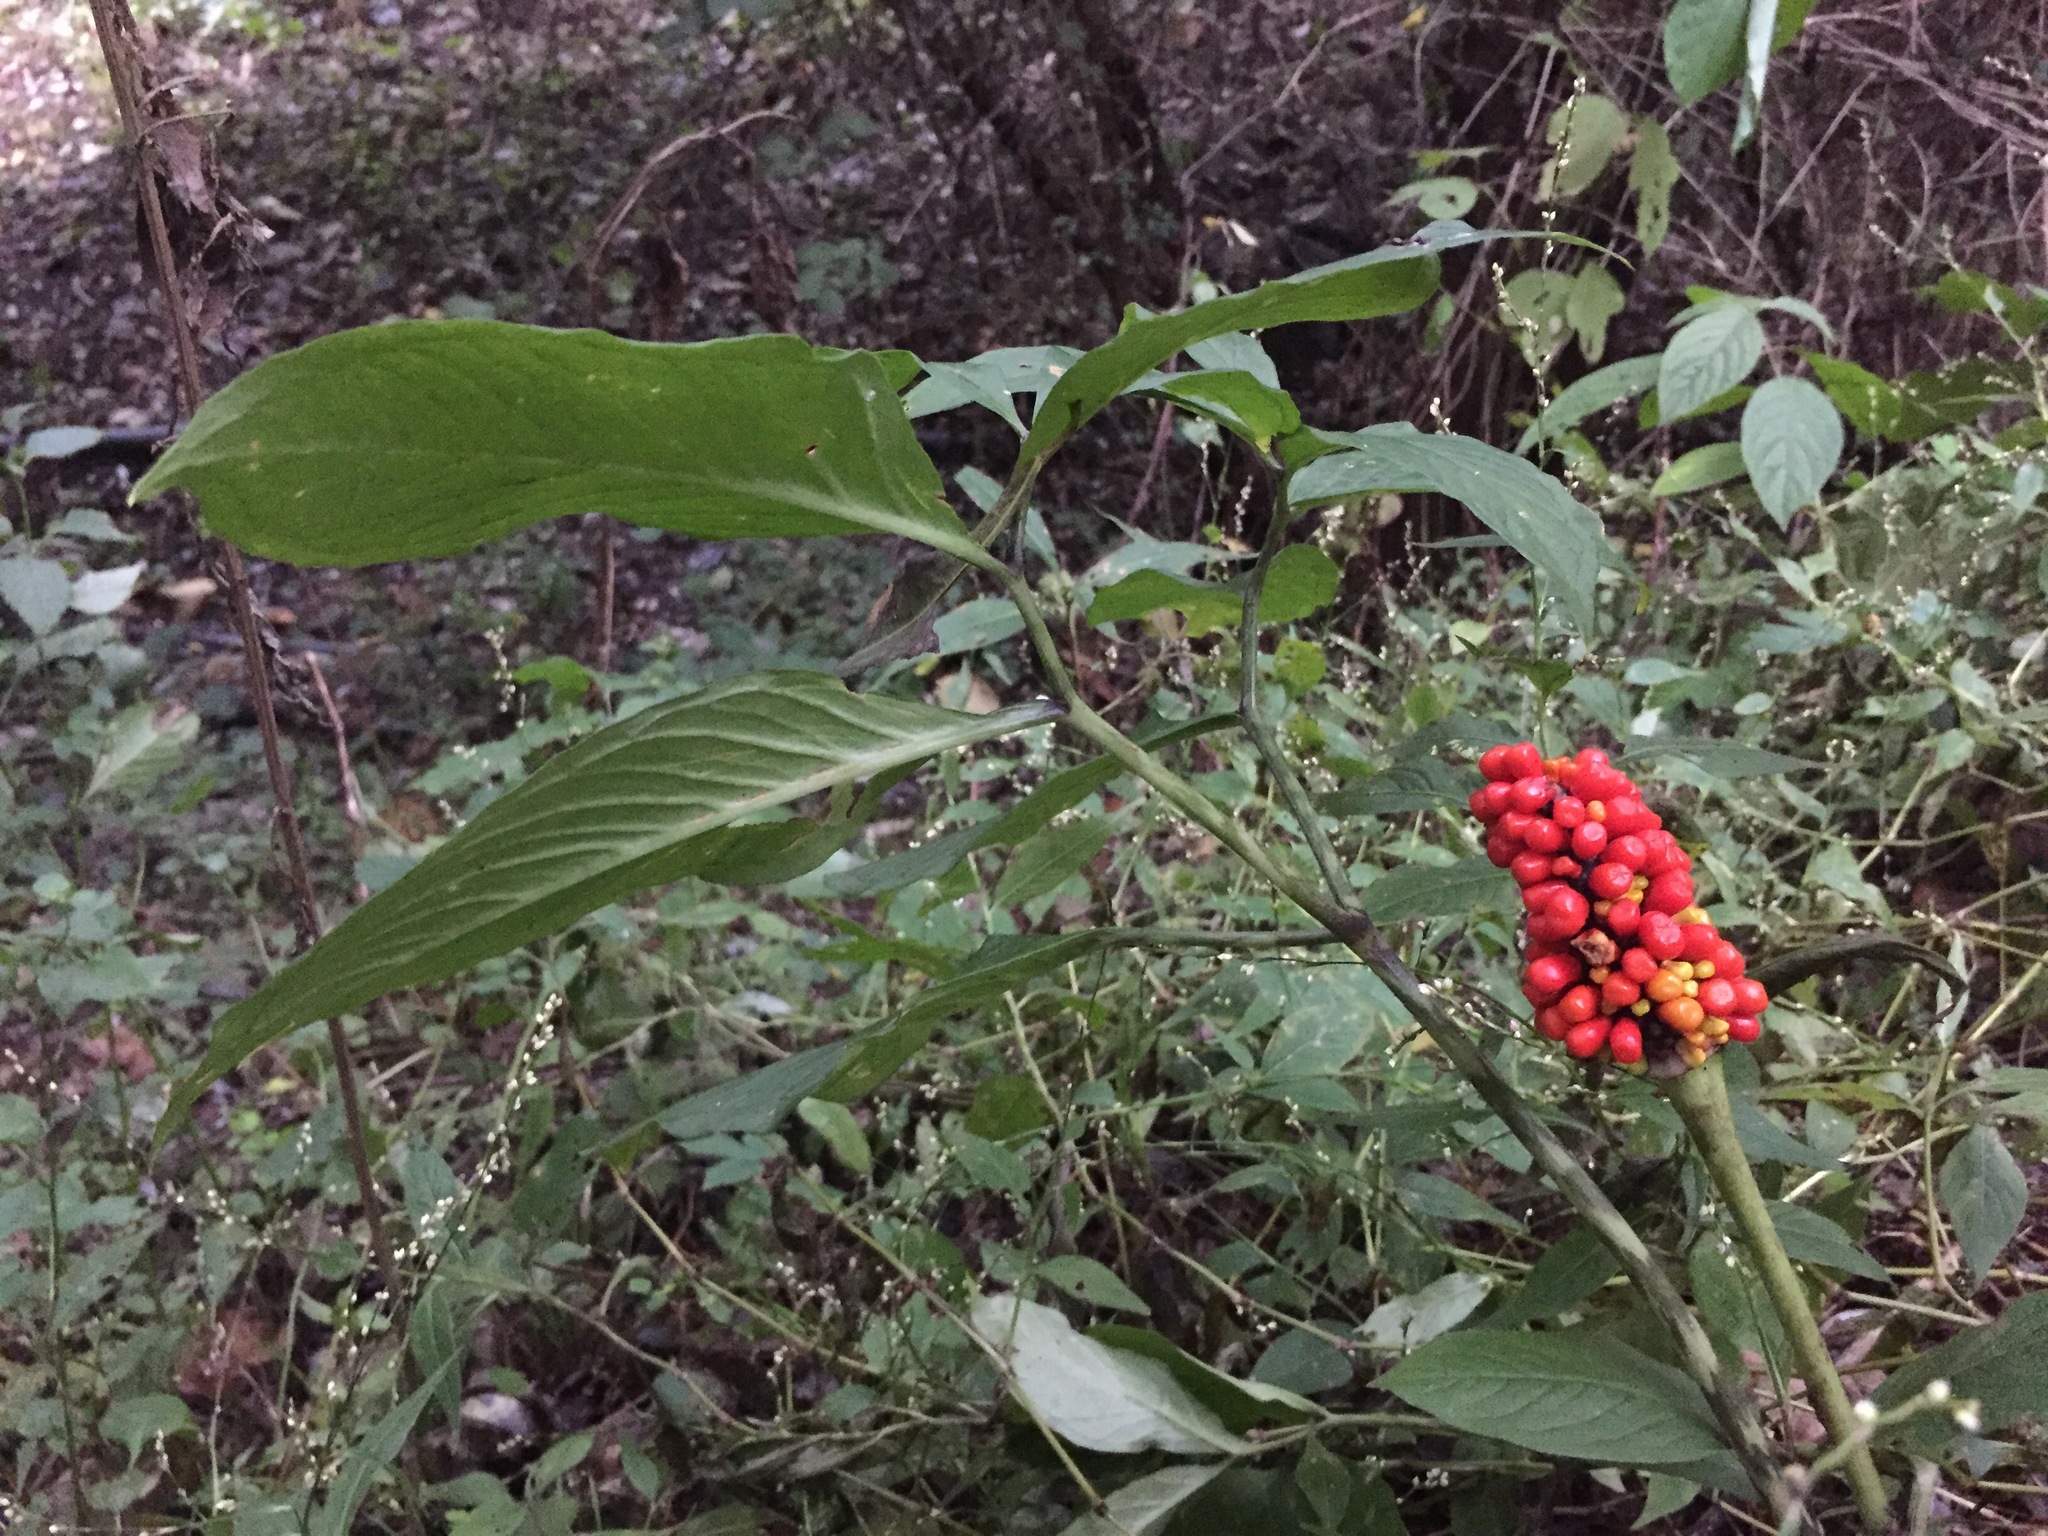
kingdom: Plantae
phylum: Tracheophyta
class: Liliopsida
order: Alismatales
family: Araceae
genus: Arisaema
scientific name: Arisaema heterophyllum
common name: Dancing crane cobra lily
